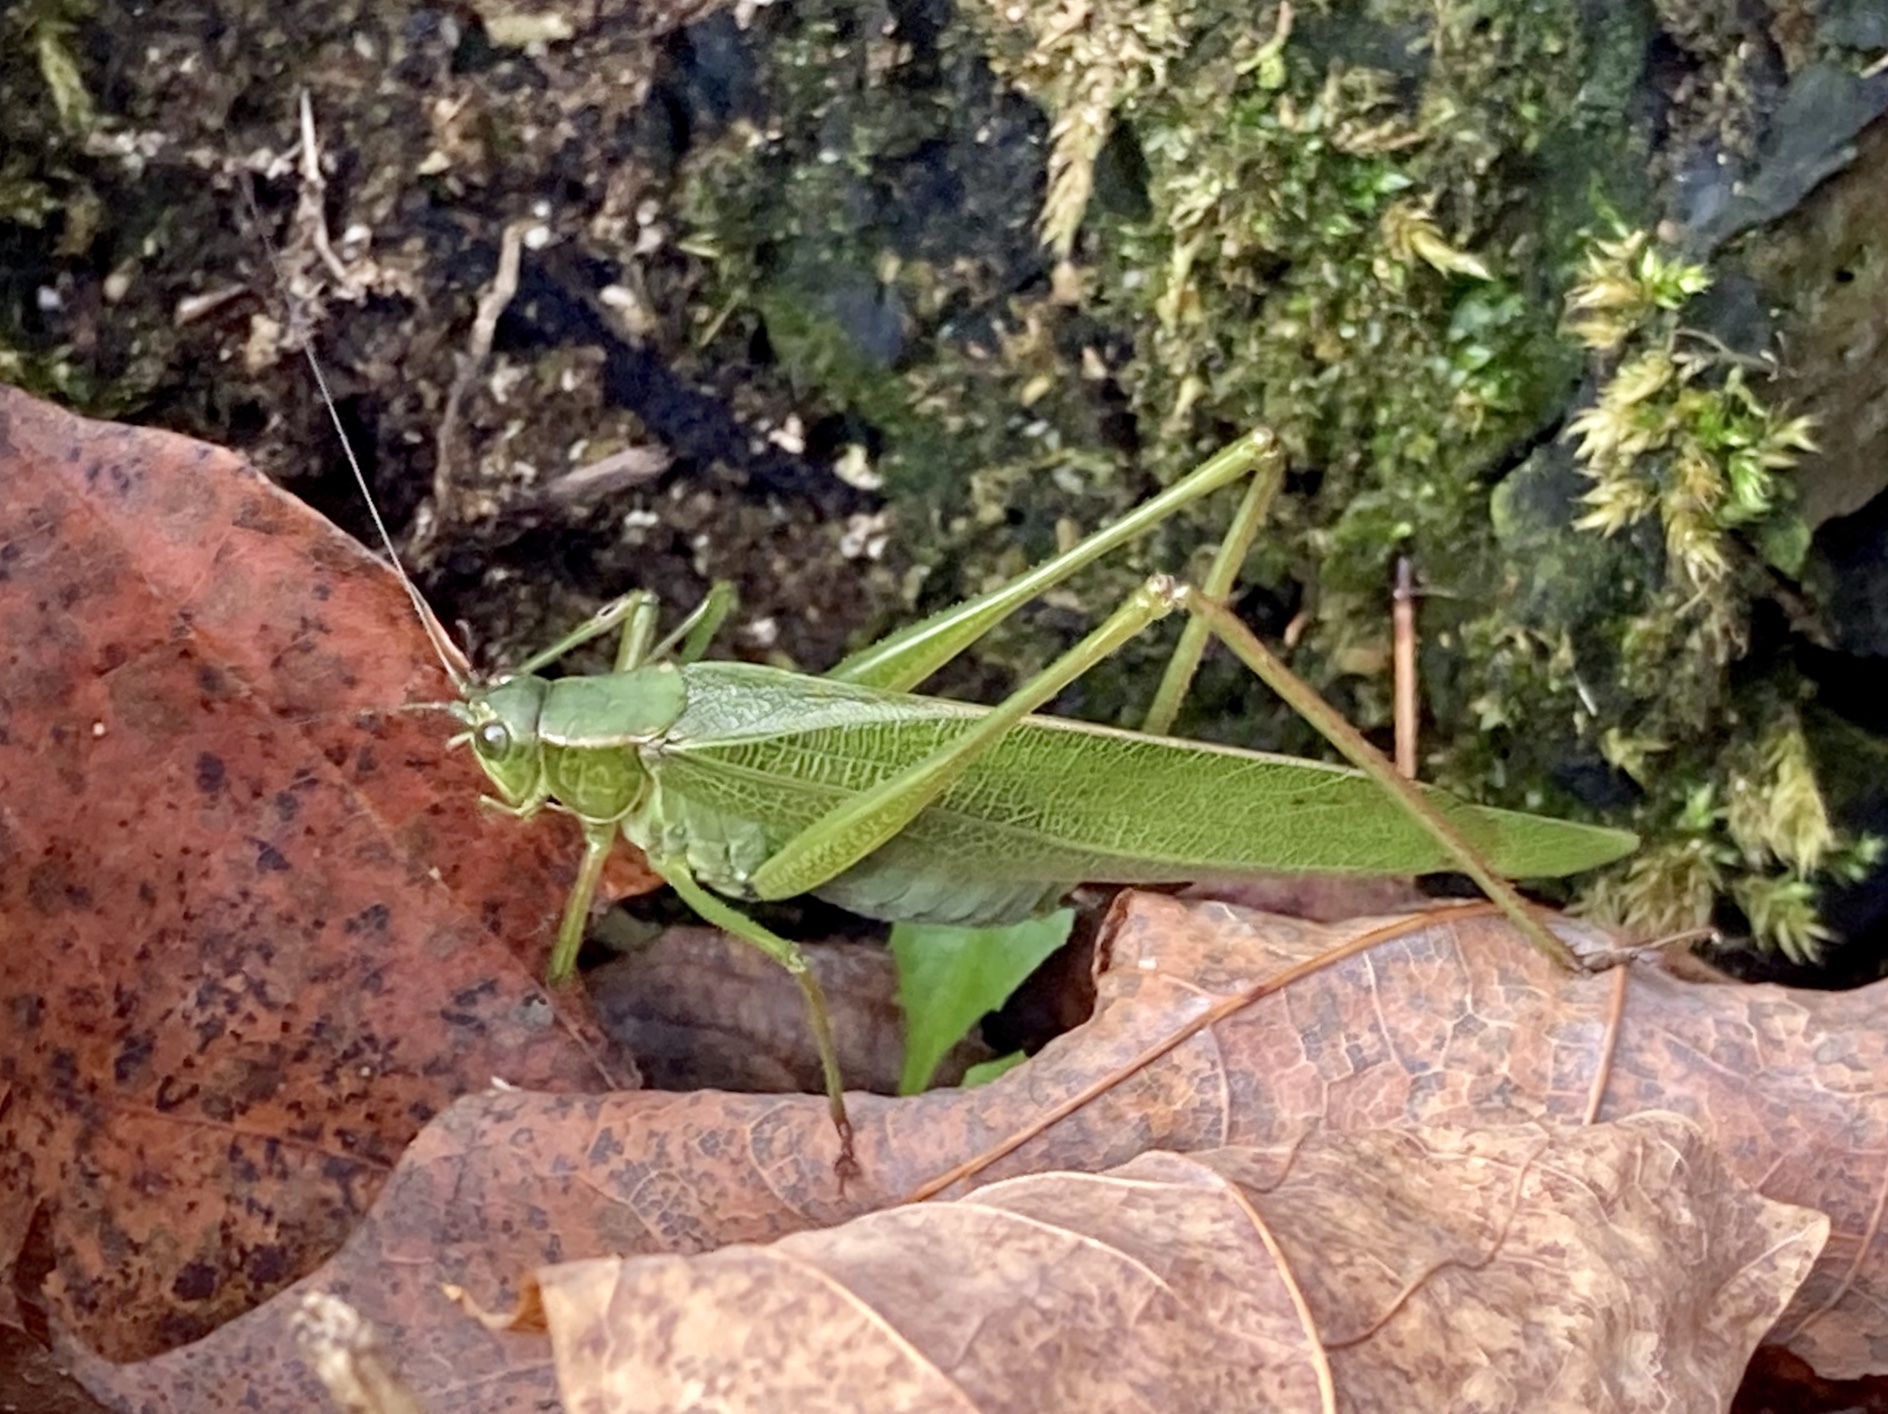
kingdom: Animalia
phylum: Arthropoda
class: Insecta
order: Orthoptera
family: Tettigoniidae
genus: Scudderia
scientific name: Scudderia furcata
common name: Fork-tailed bush katydid
